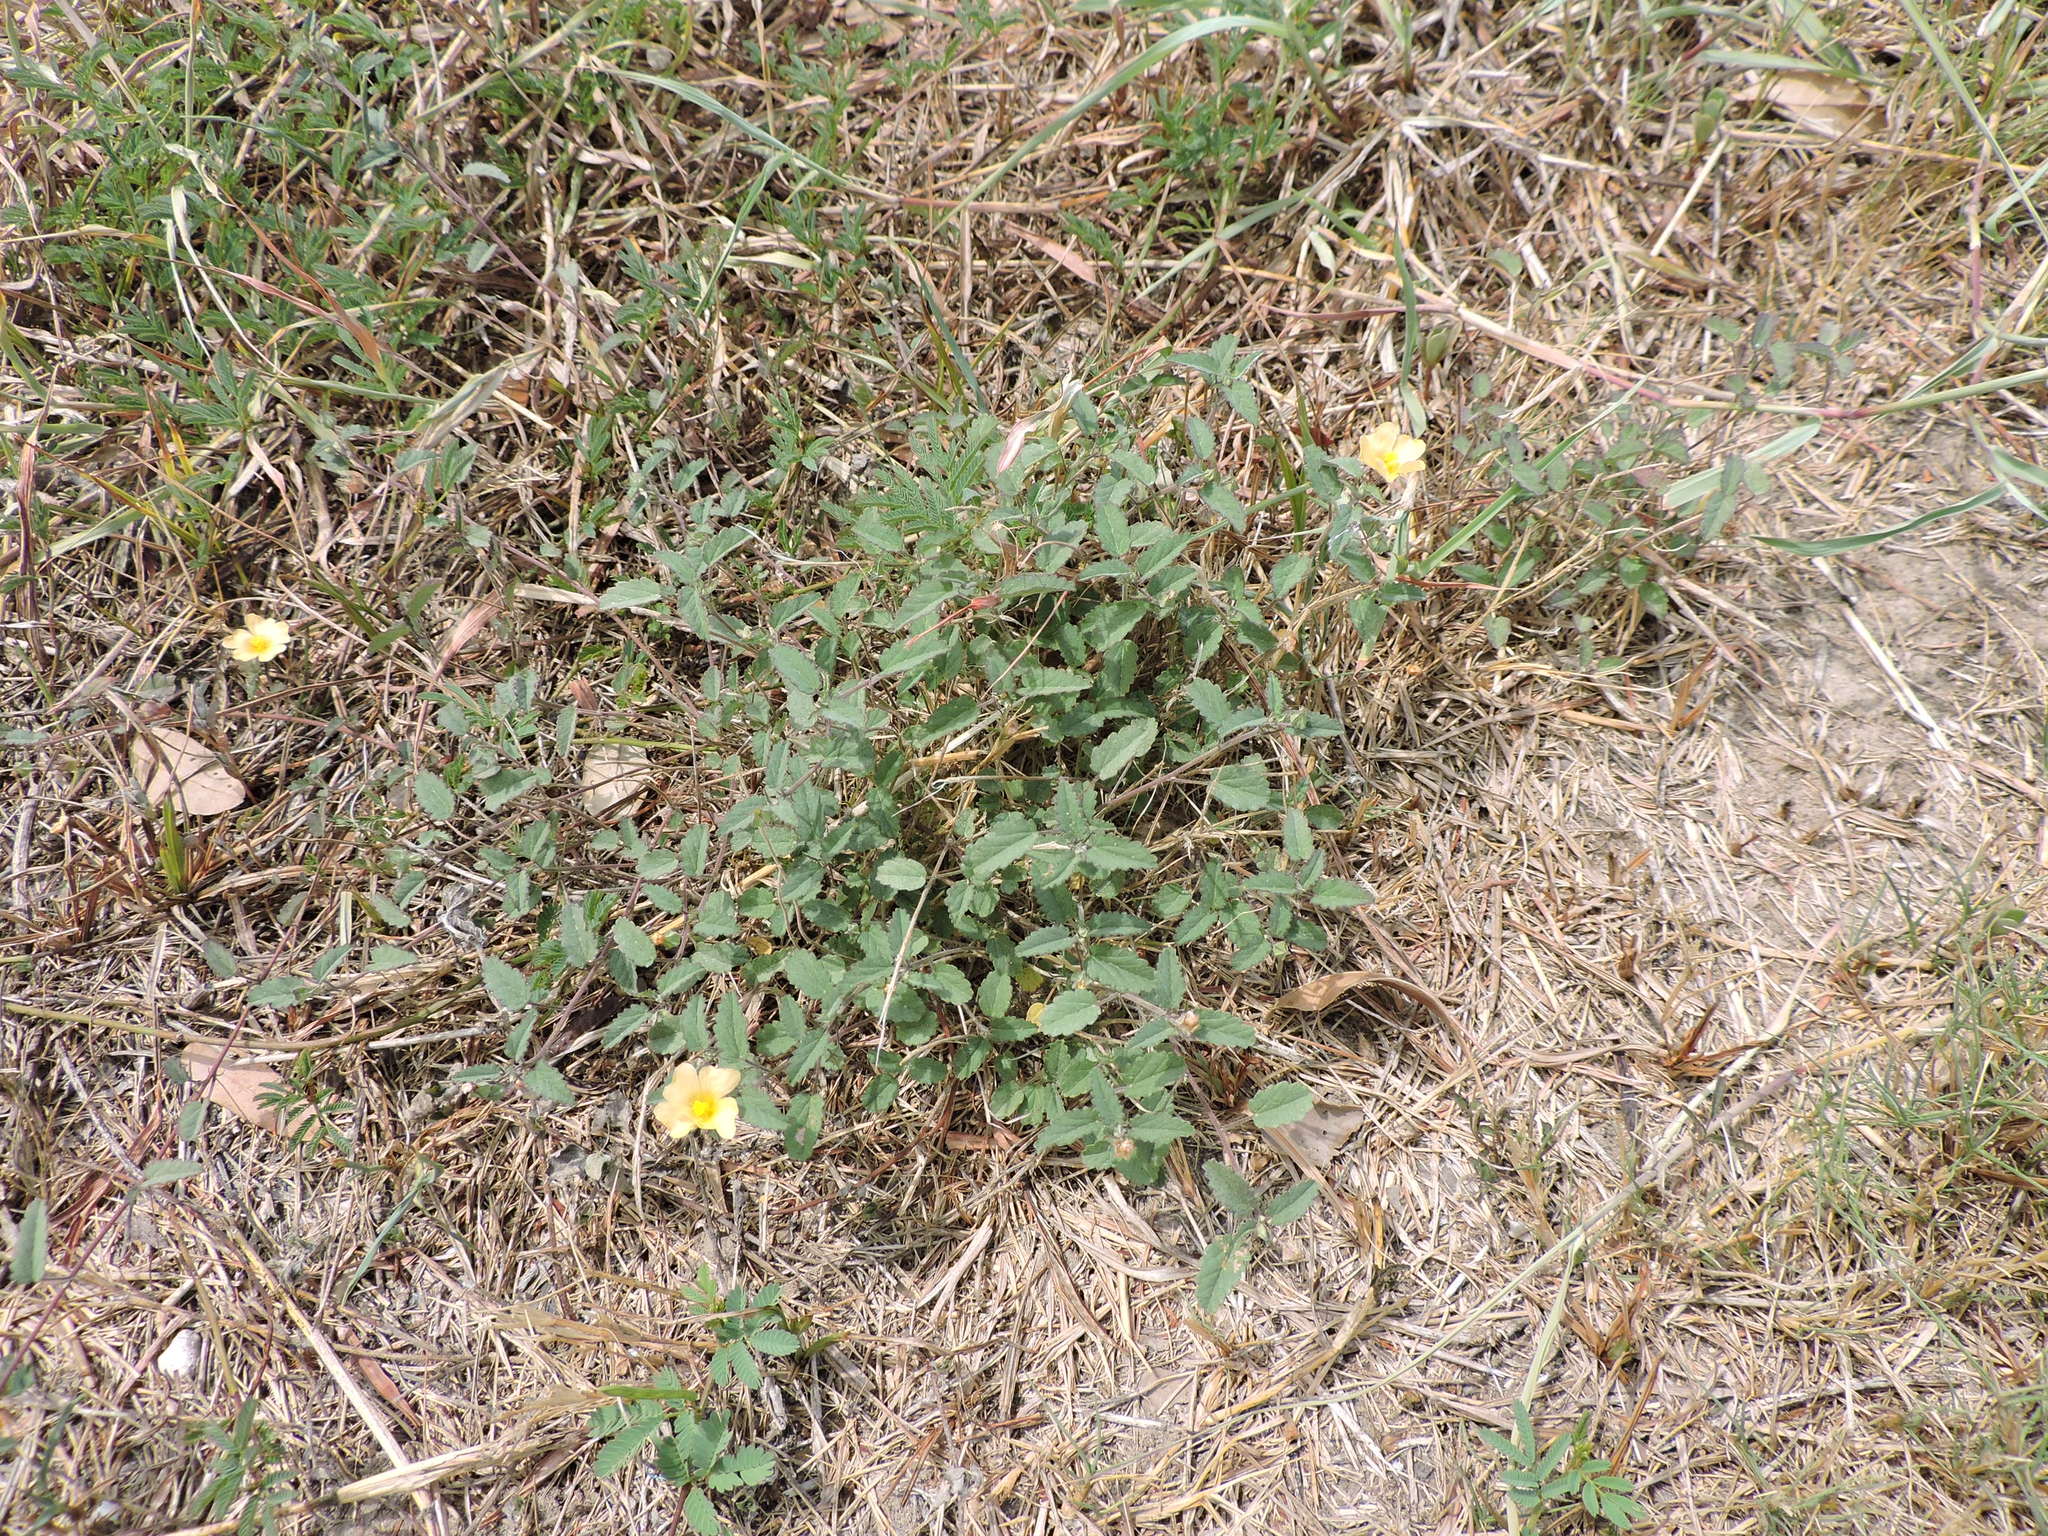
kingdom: Plantae
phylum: Tracheophyta
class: Magnoliopsida
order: Malvales
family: Malvaceae
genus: Sida
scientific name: Sida abutilifolia
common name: Spreading fanpetals
